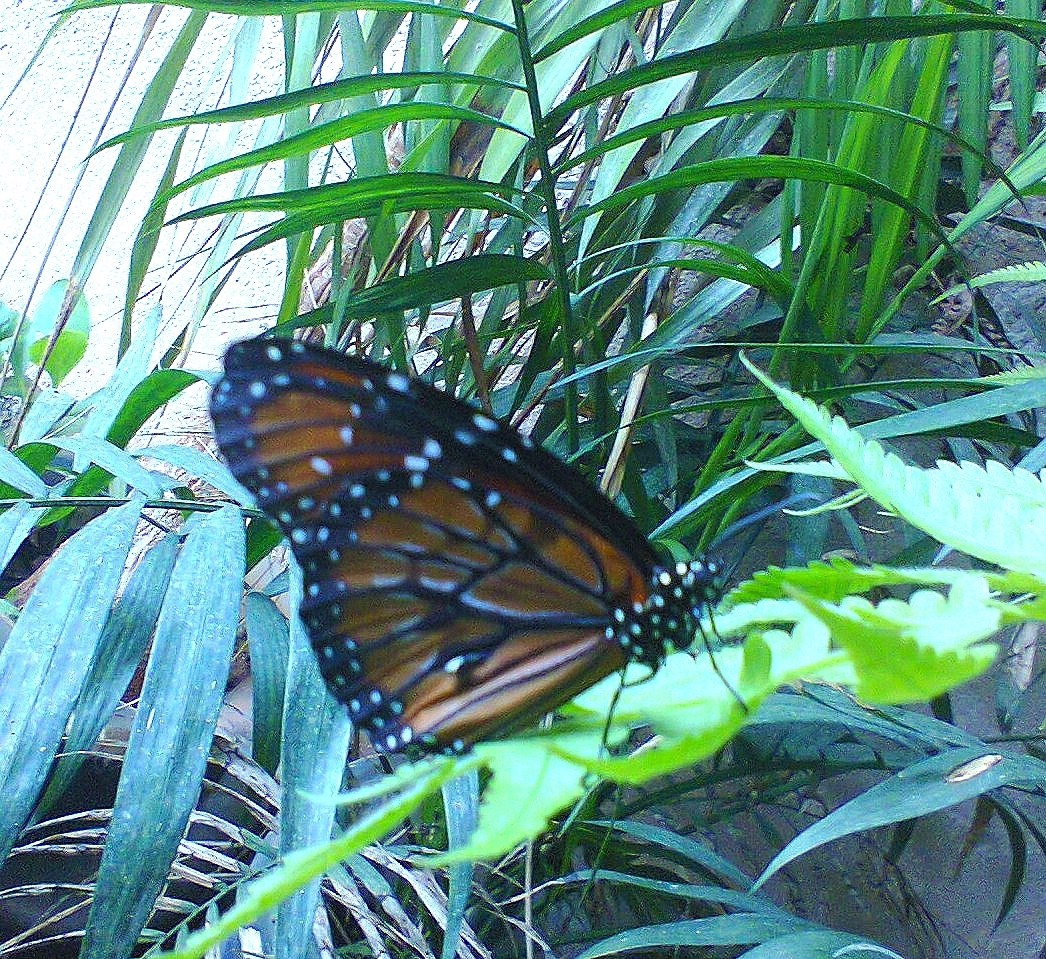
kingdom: Animalia
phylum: Arthropoda
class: Insecta
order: Lepidoptera
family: Nymphalidae
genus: Danaus
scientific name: Danaus eresimus
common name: Soldier
